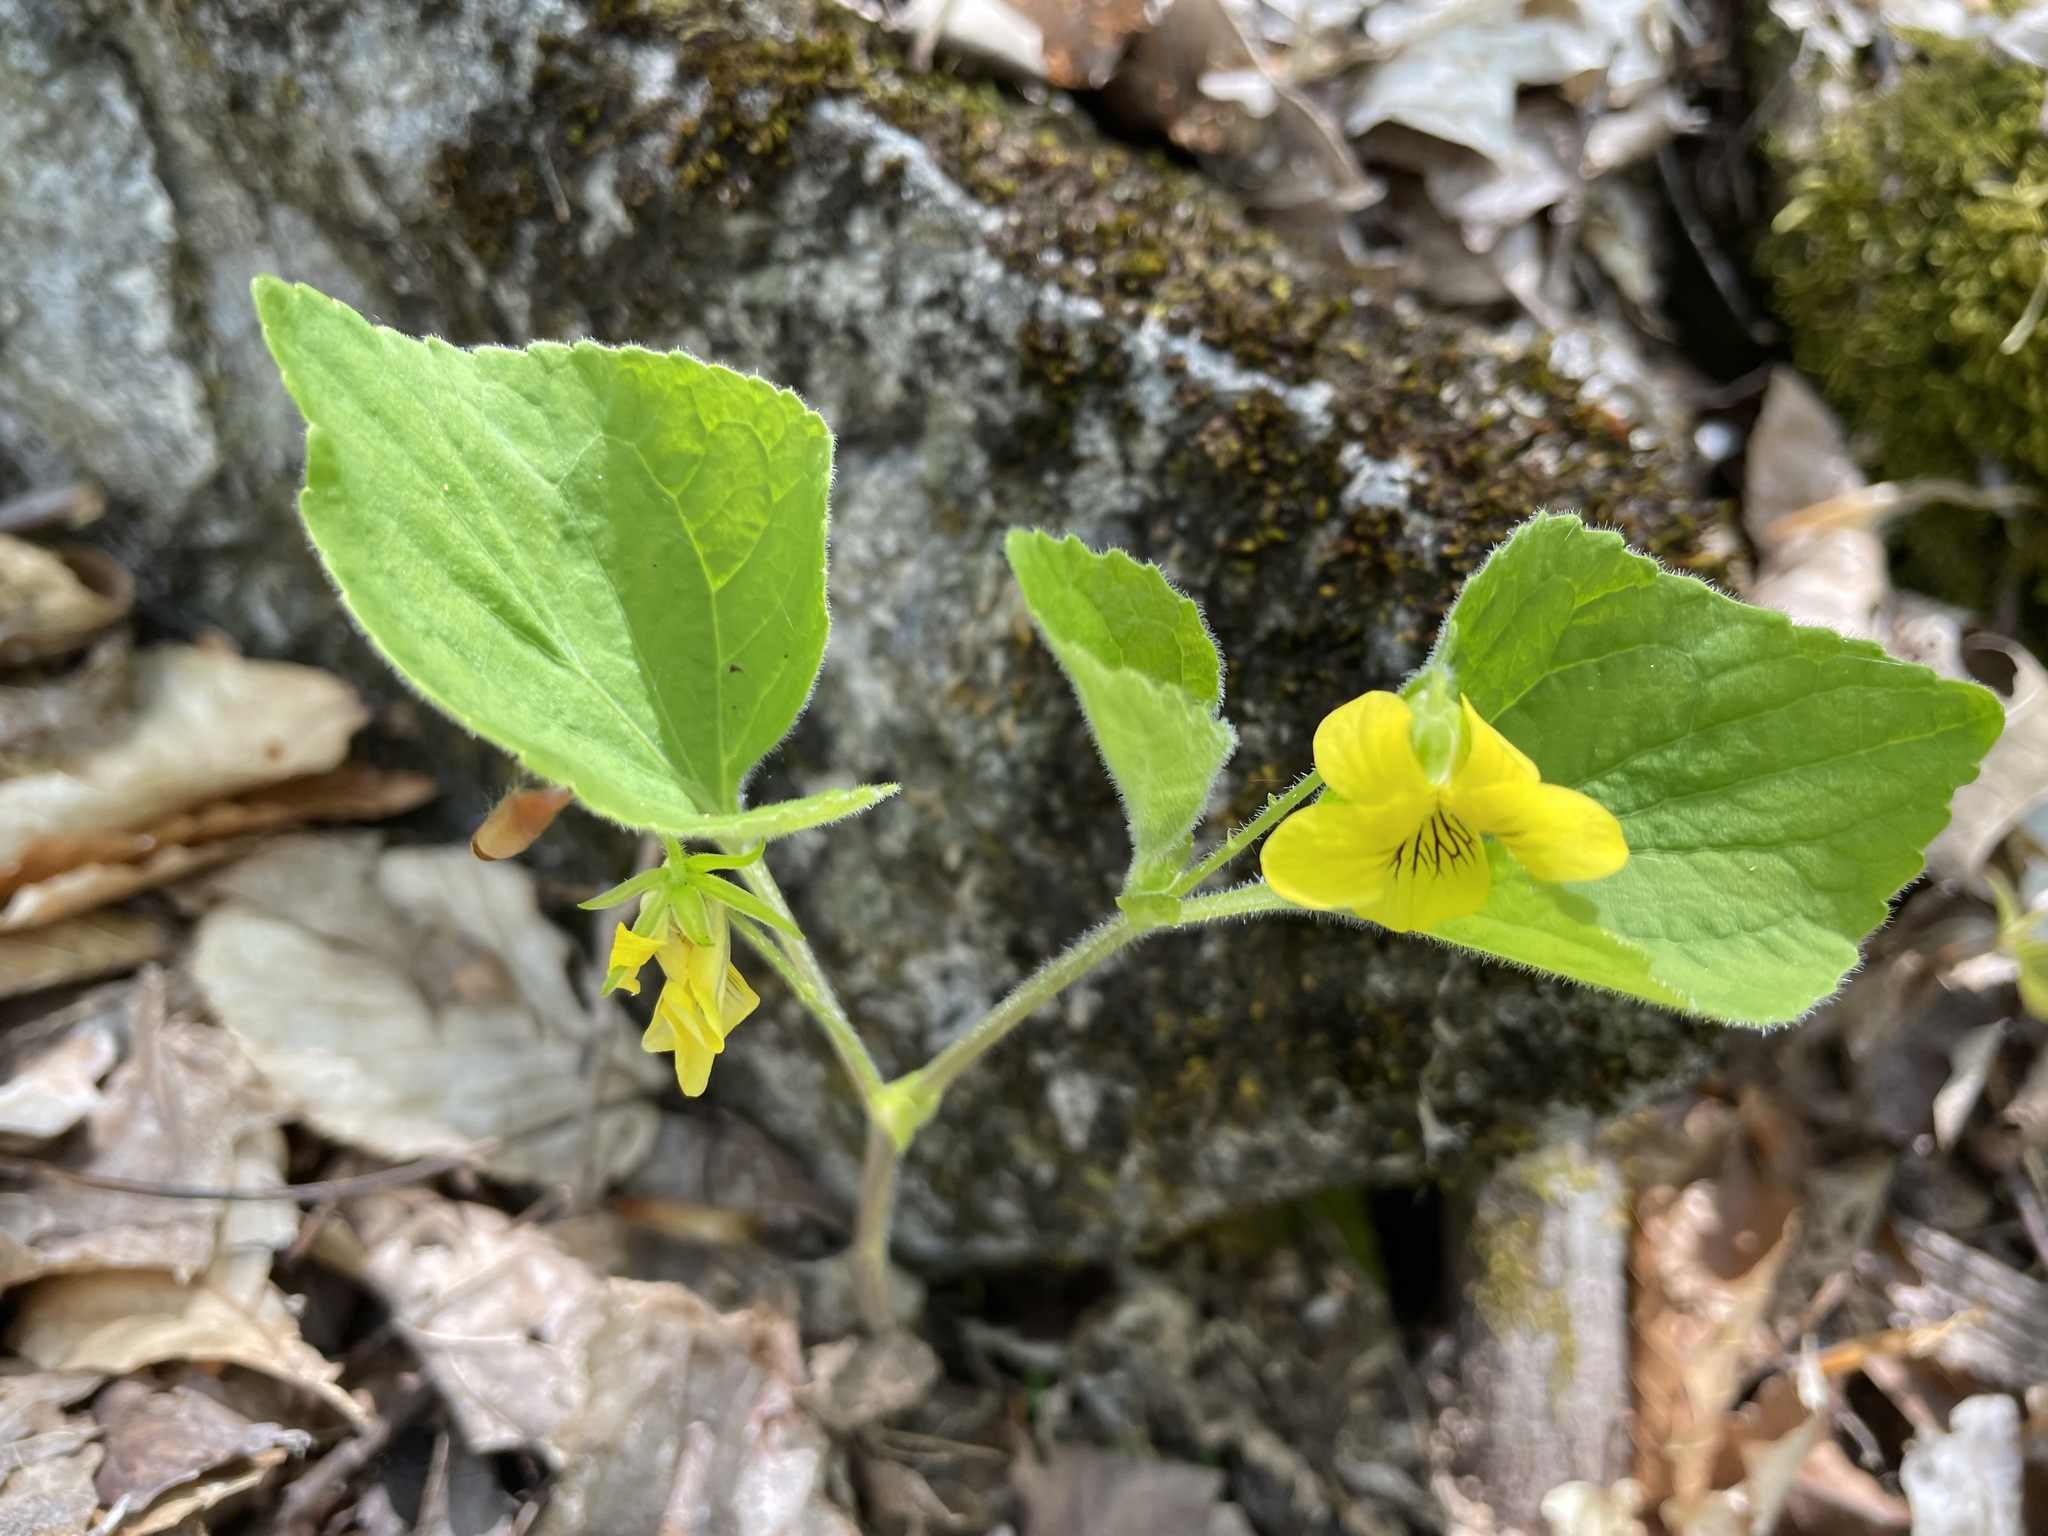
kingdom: Plantae
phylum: Tracheophyta
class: Magnoliopsida
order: Malpighiales
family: Violaceae
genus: Viola
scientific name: Viola pubescens
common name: Yellow forest violet
